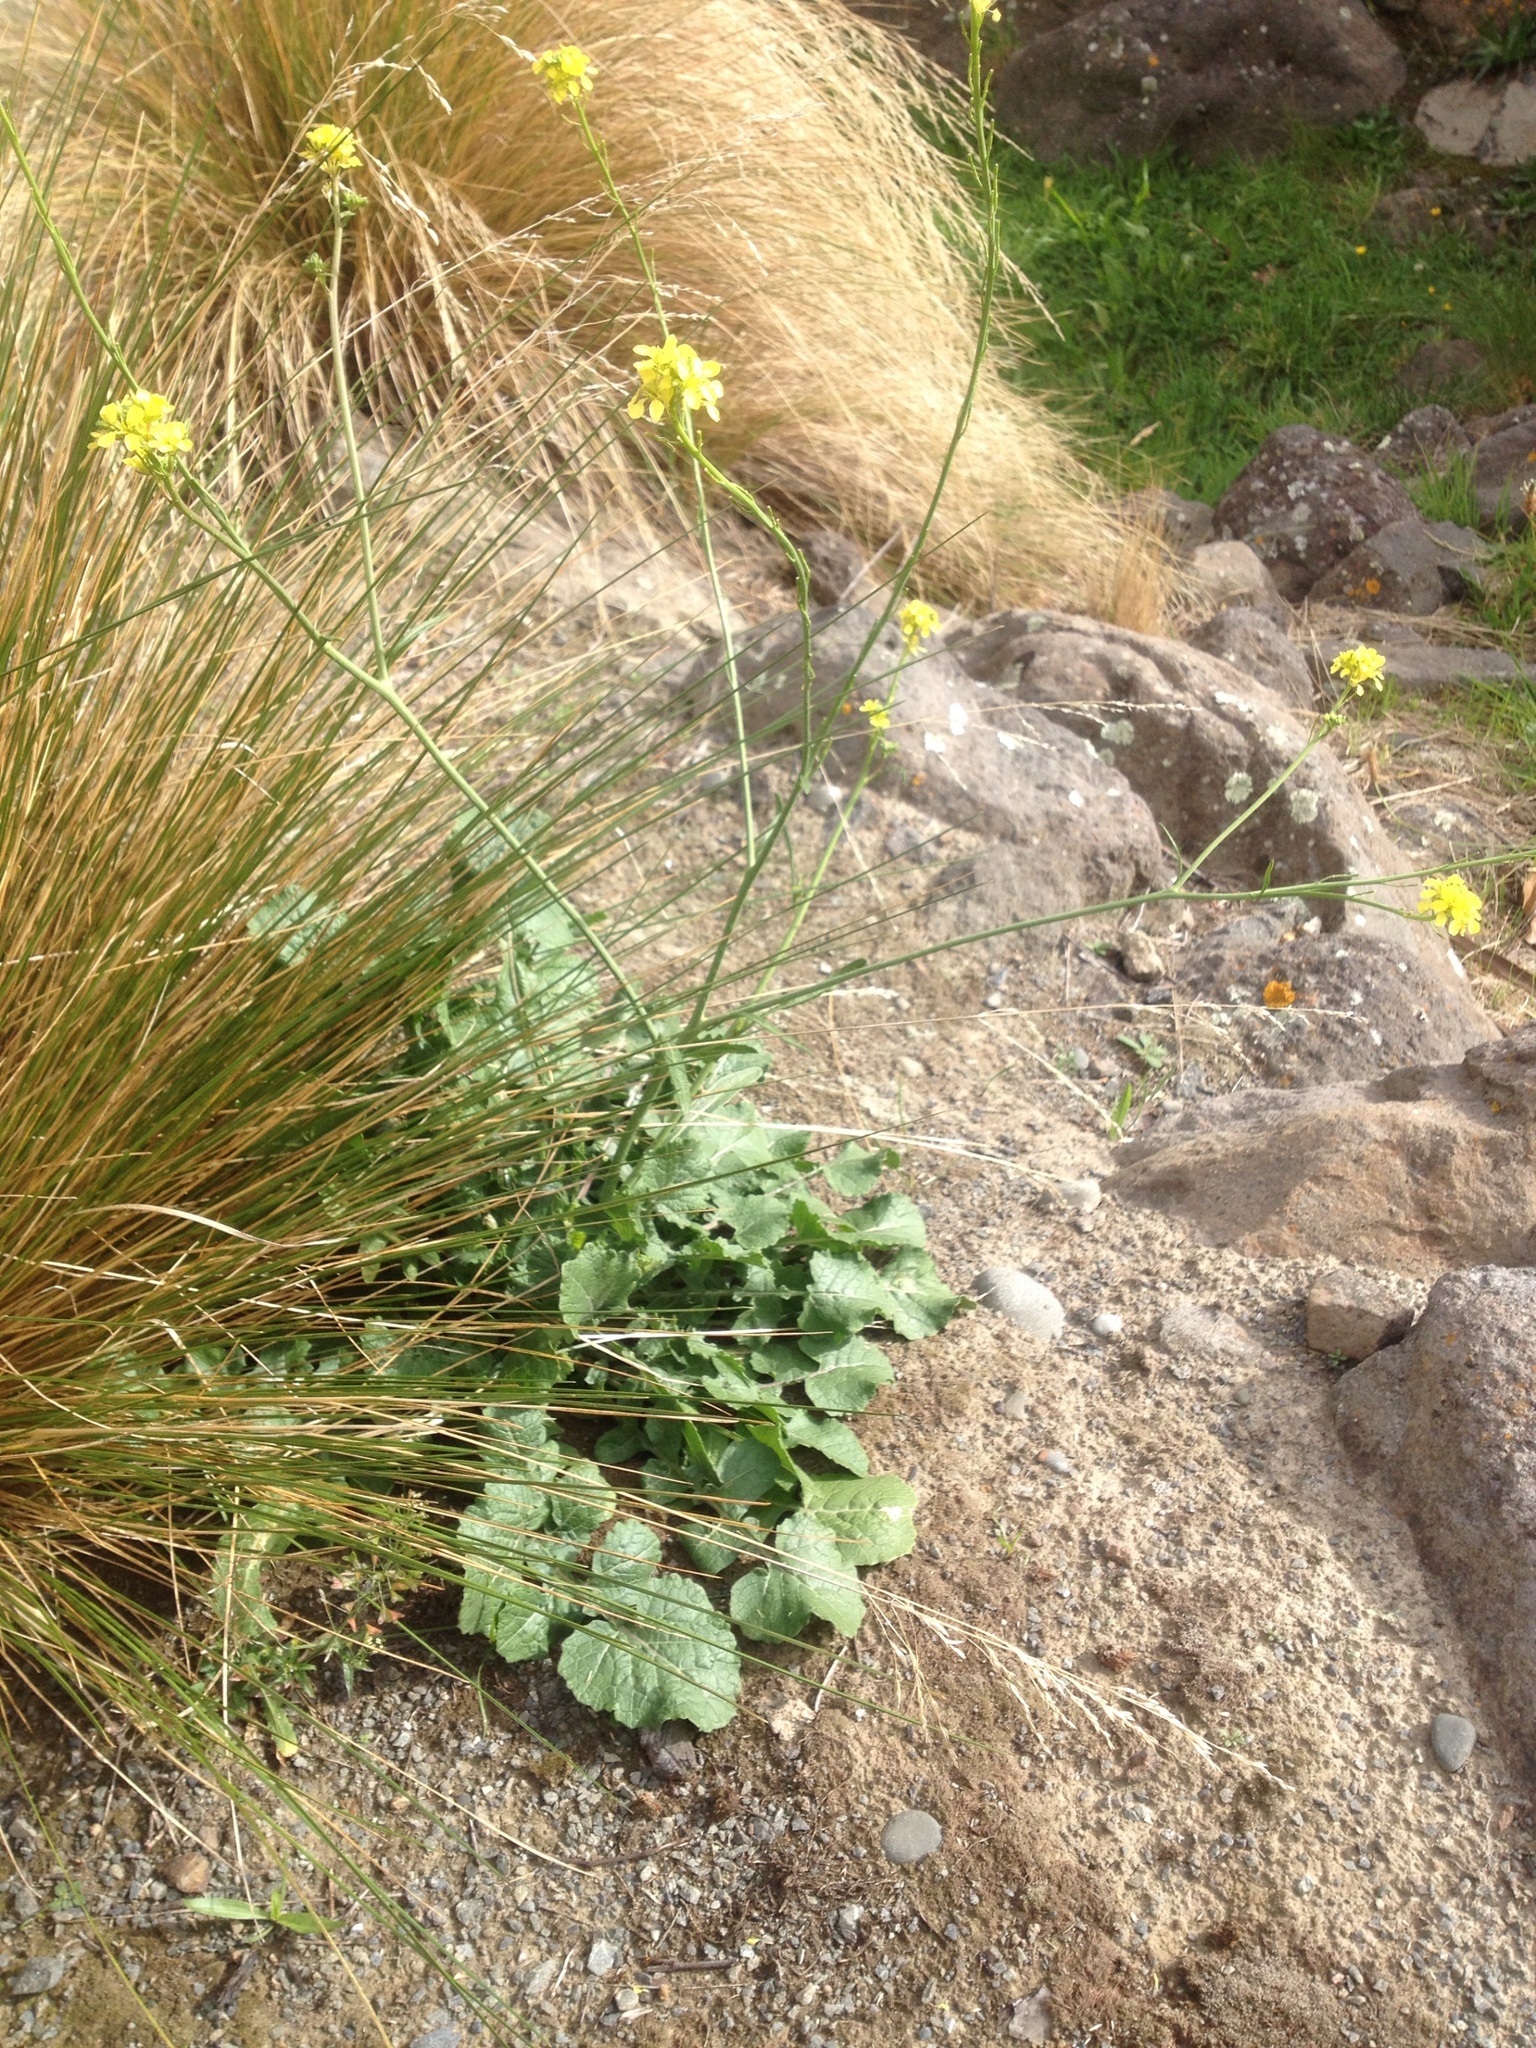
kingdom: Plantae
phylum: Tracheophyta
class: Magnoliopsida
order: Brassicales
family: Brassicaceae
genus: Hirschfeldia
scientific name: Hirschfeldia incana
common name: Hoary mustard
